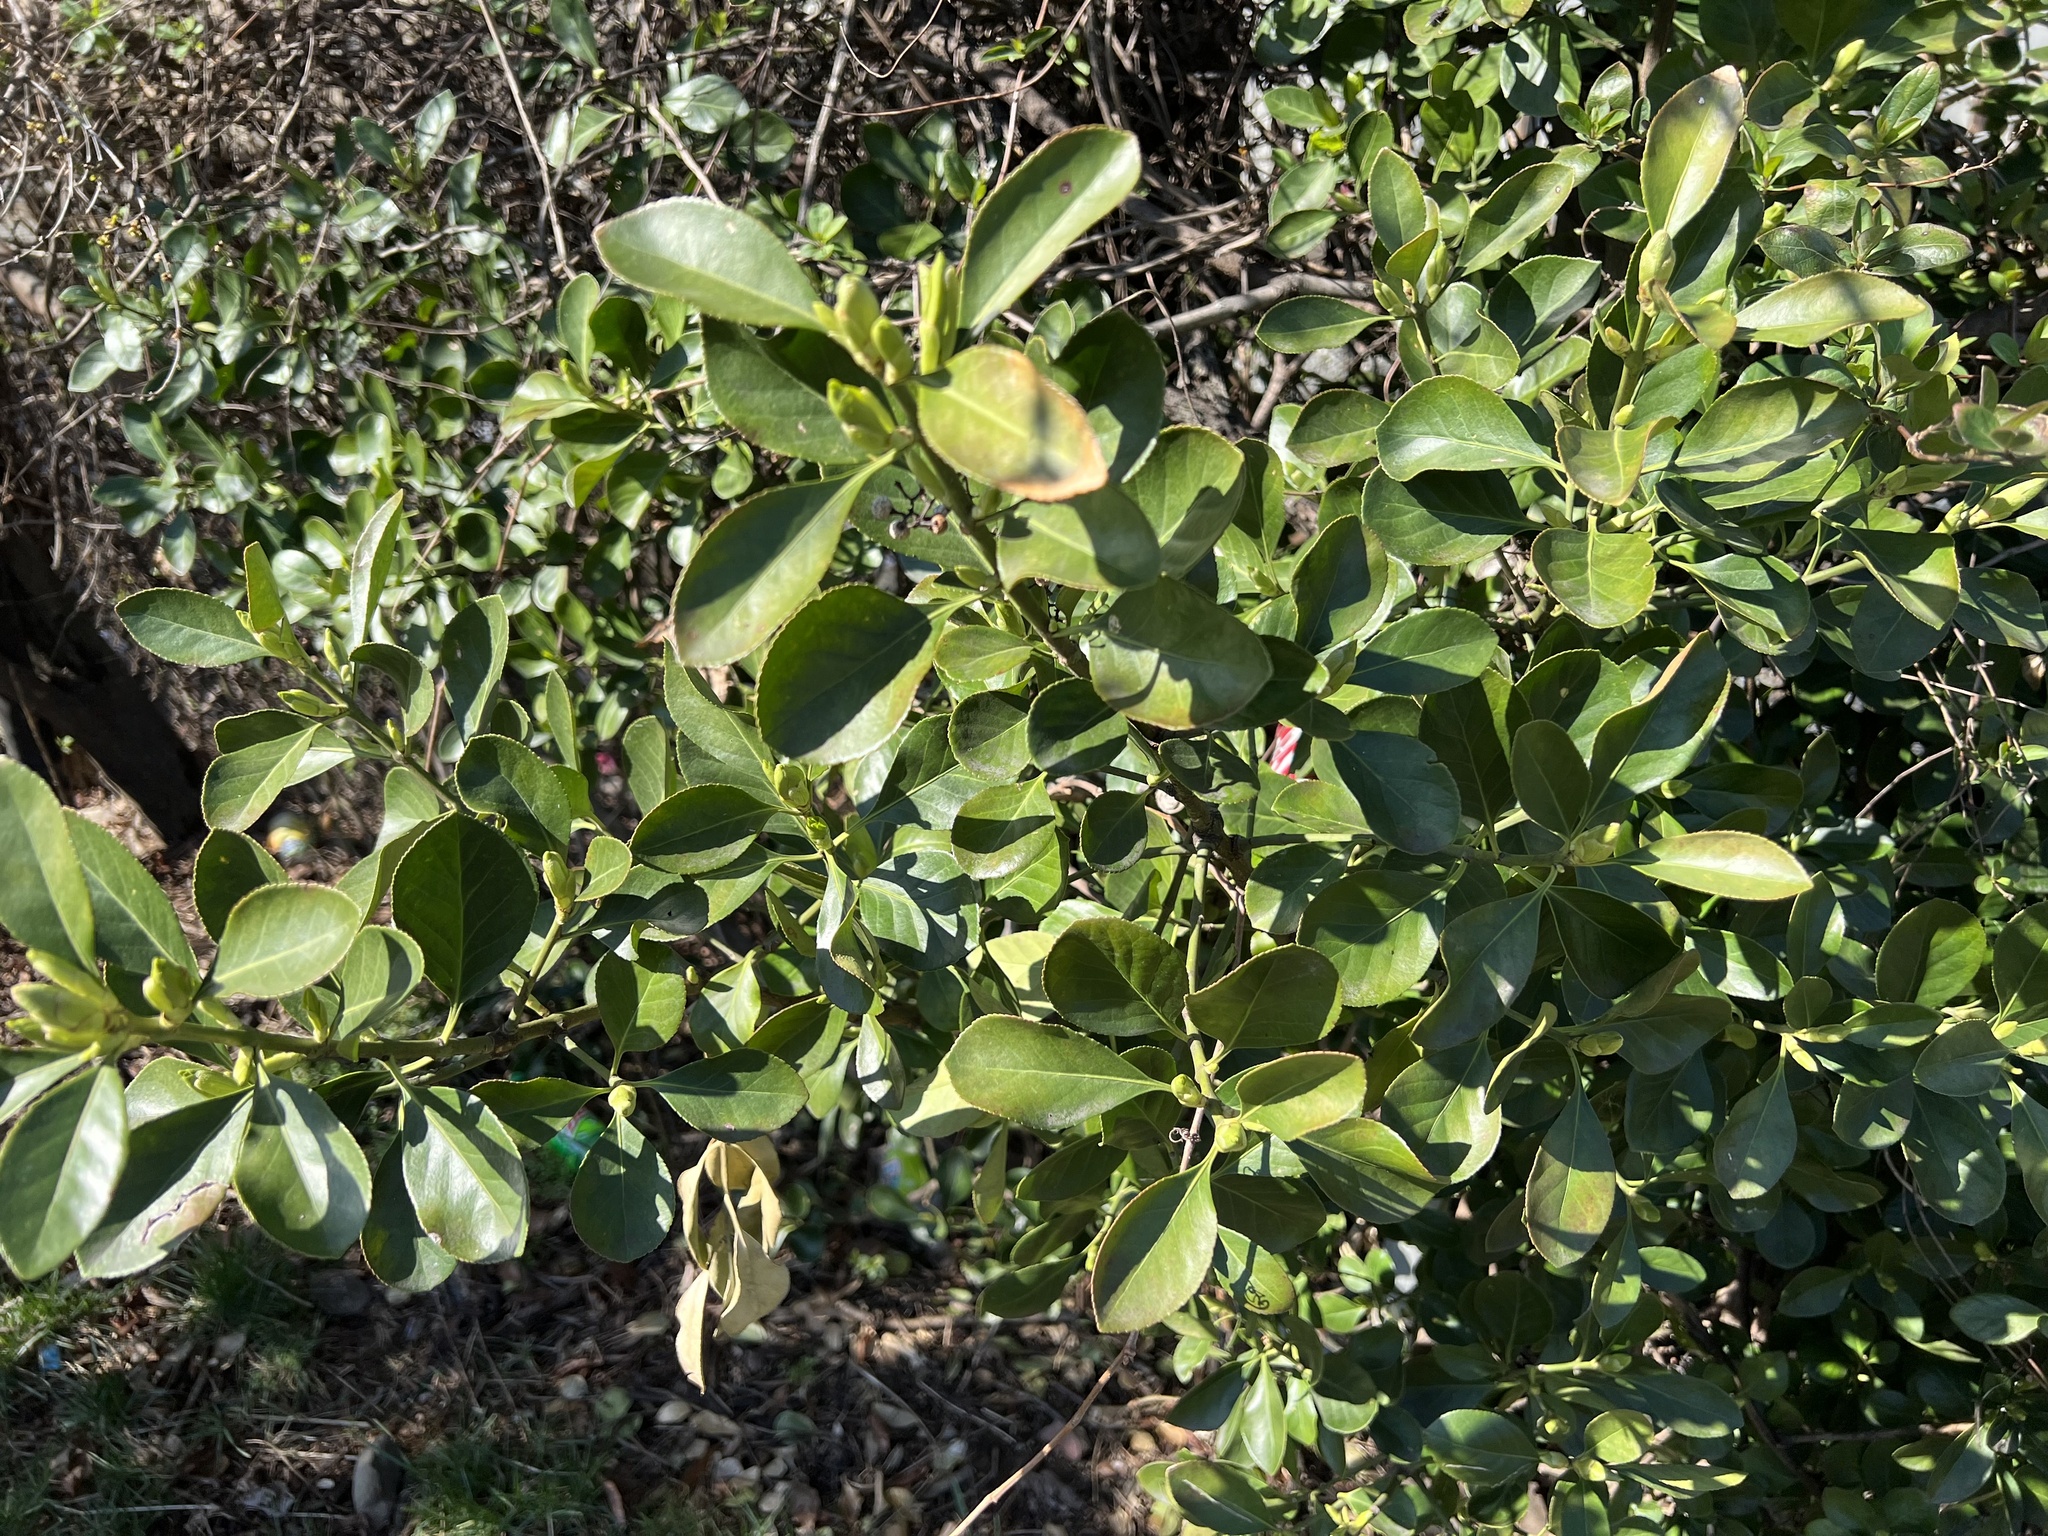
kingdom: Plantae
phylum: Tracheophyta
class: Magnoliopsida
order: Celastrales
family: Celastraceae
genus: Euonymus
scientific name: Euonymus japonicus
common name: Japanese spindletree
